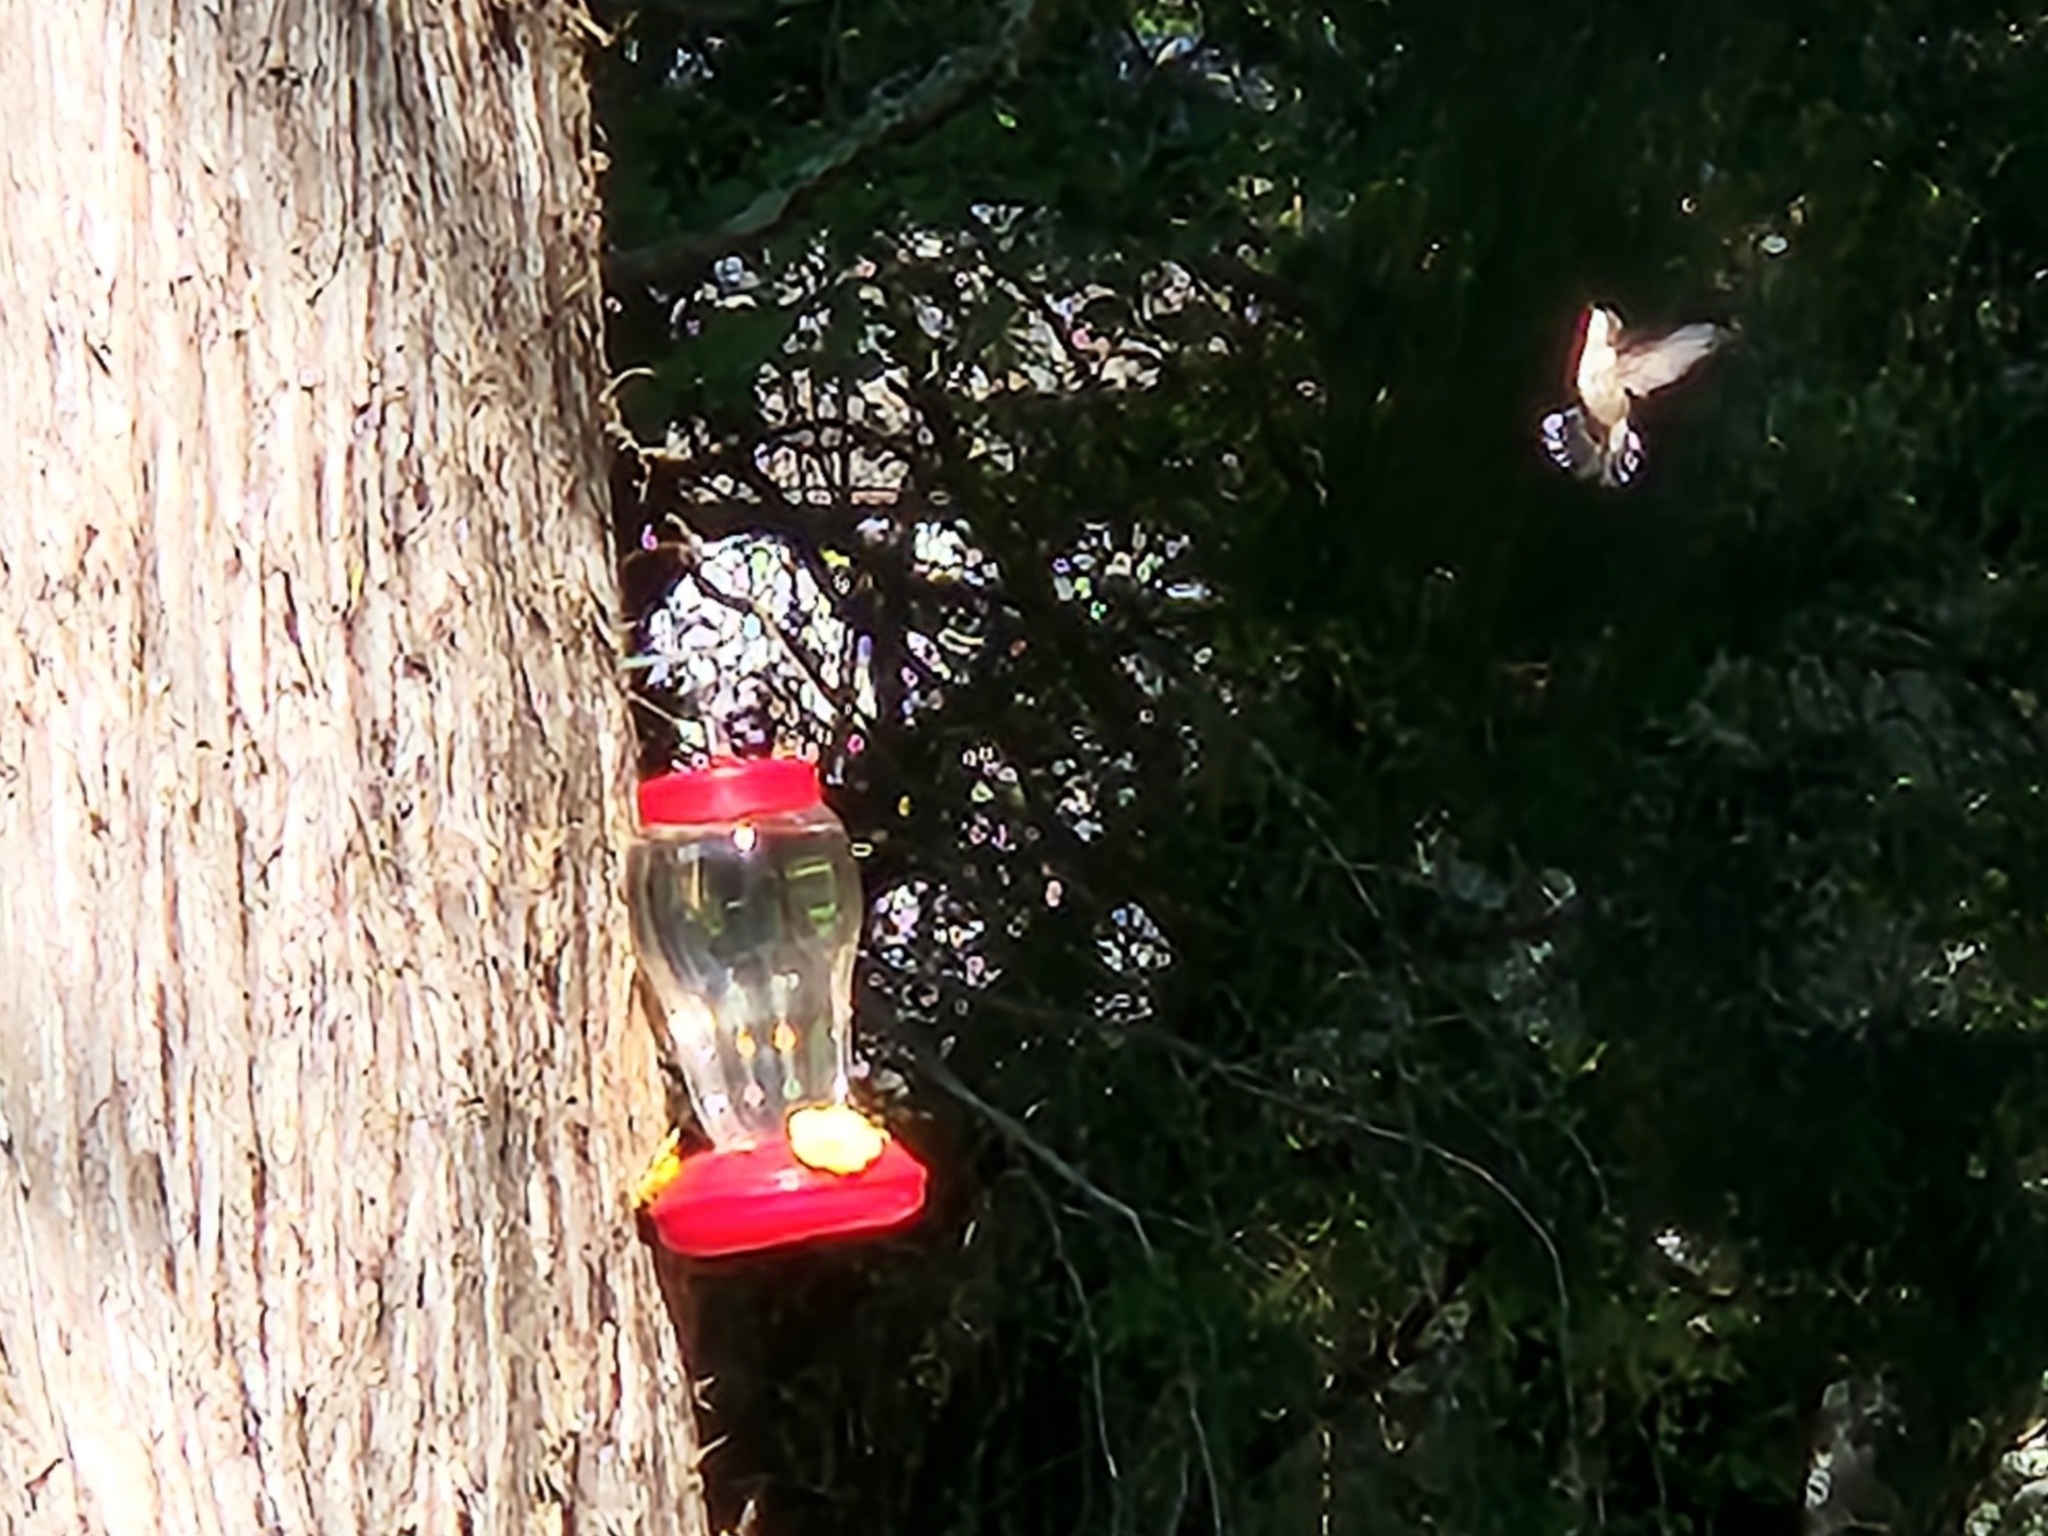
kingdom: Animalia
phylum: Chordata
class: Aves
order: Apodiformes
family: Trochilidae
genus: Archilochus
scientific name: Archilochus colubris
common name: Ruby-throated hummingbird
